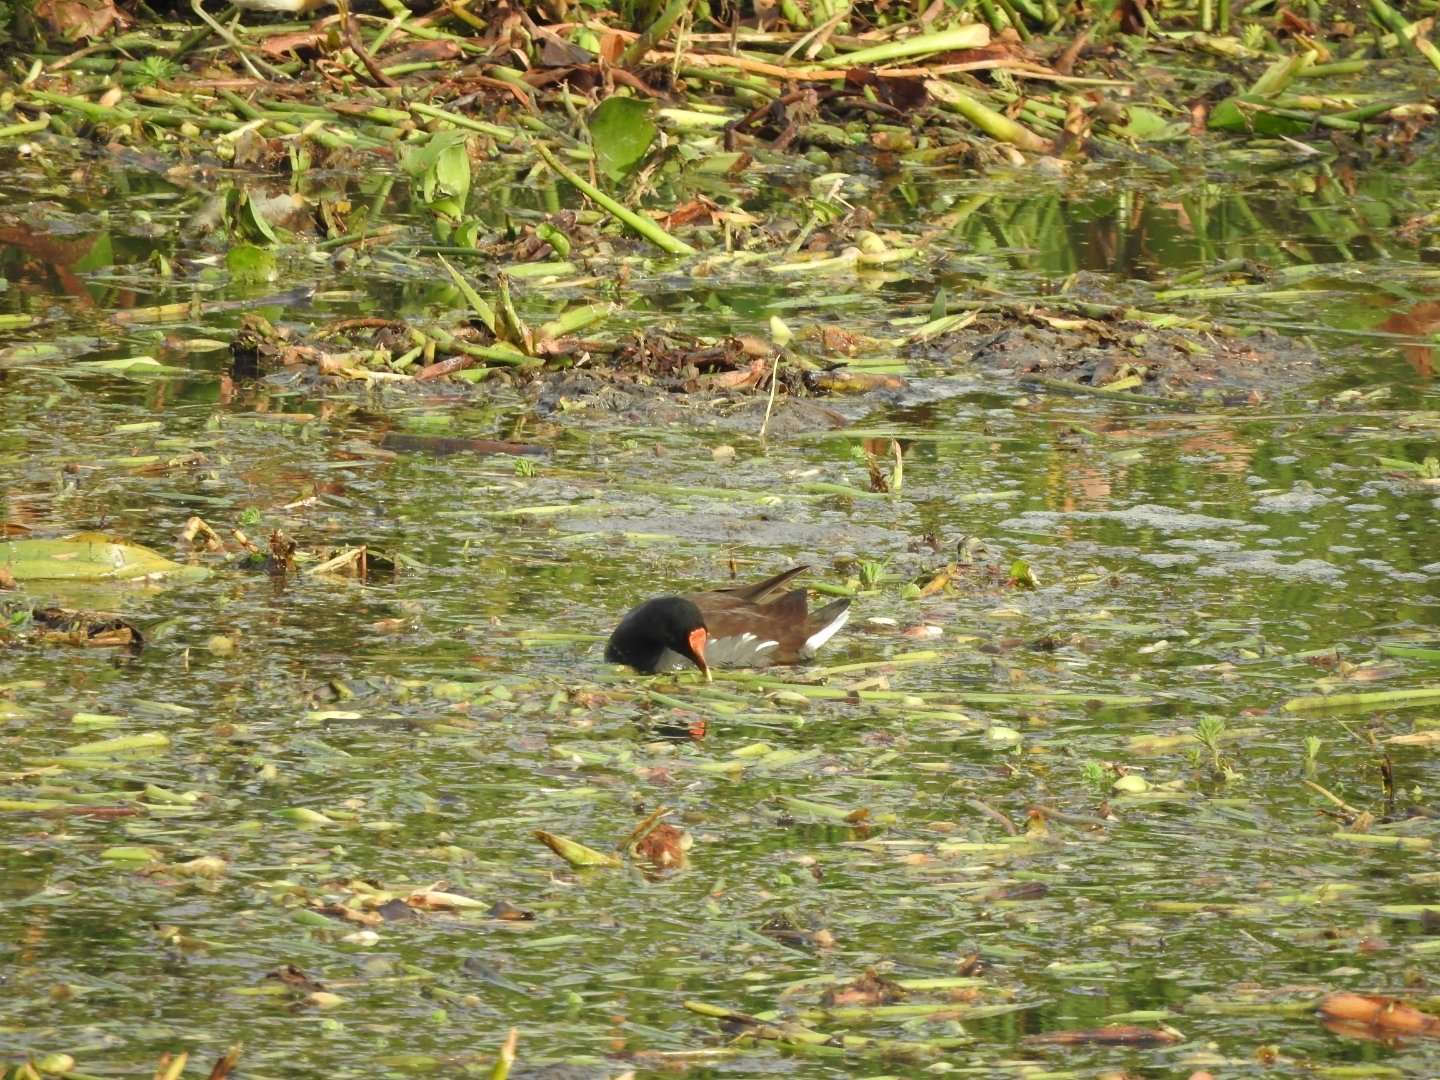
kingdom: Animalia
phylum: Chordata
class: Aves
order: Gruiformes
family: Rallidae
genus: Gallinula
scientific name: Gallinula chloropus
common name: Common moorhen
